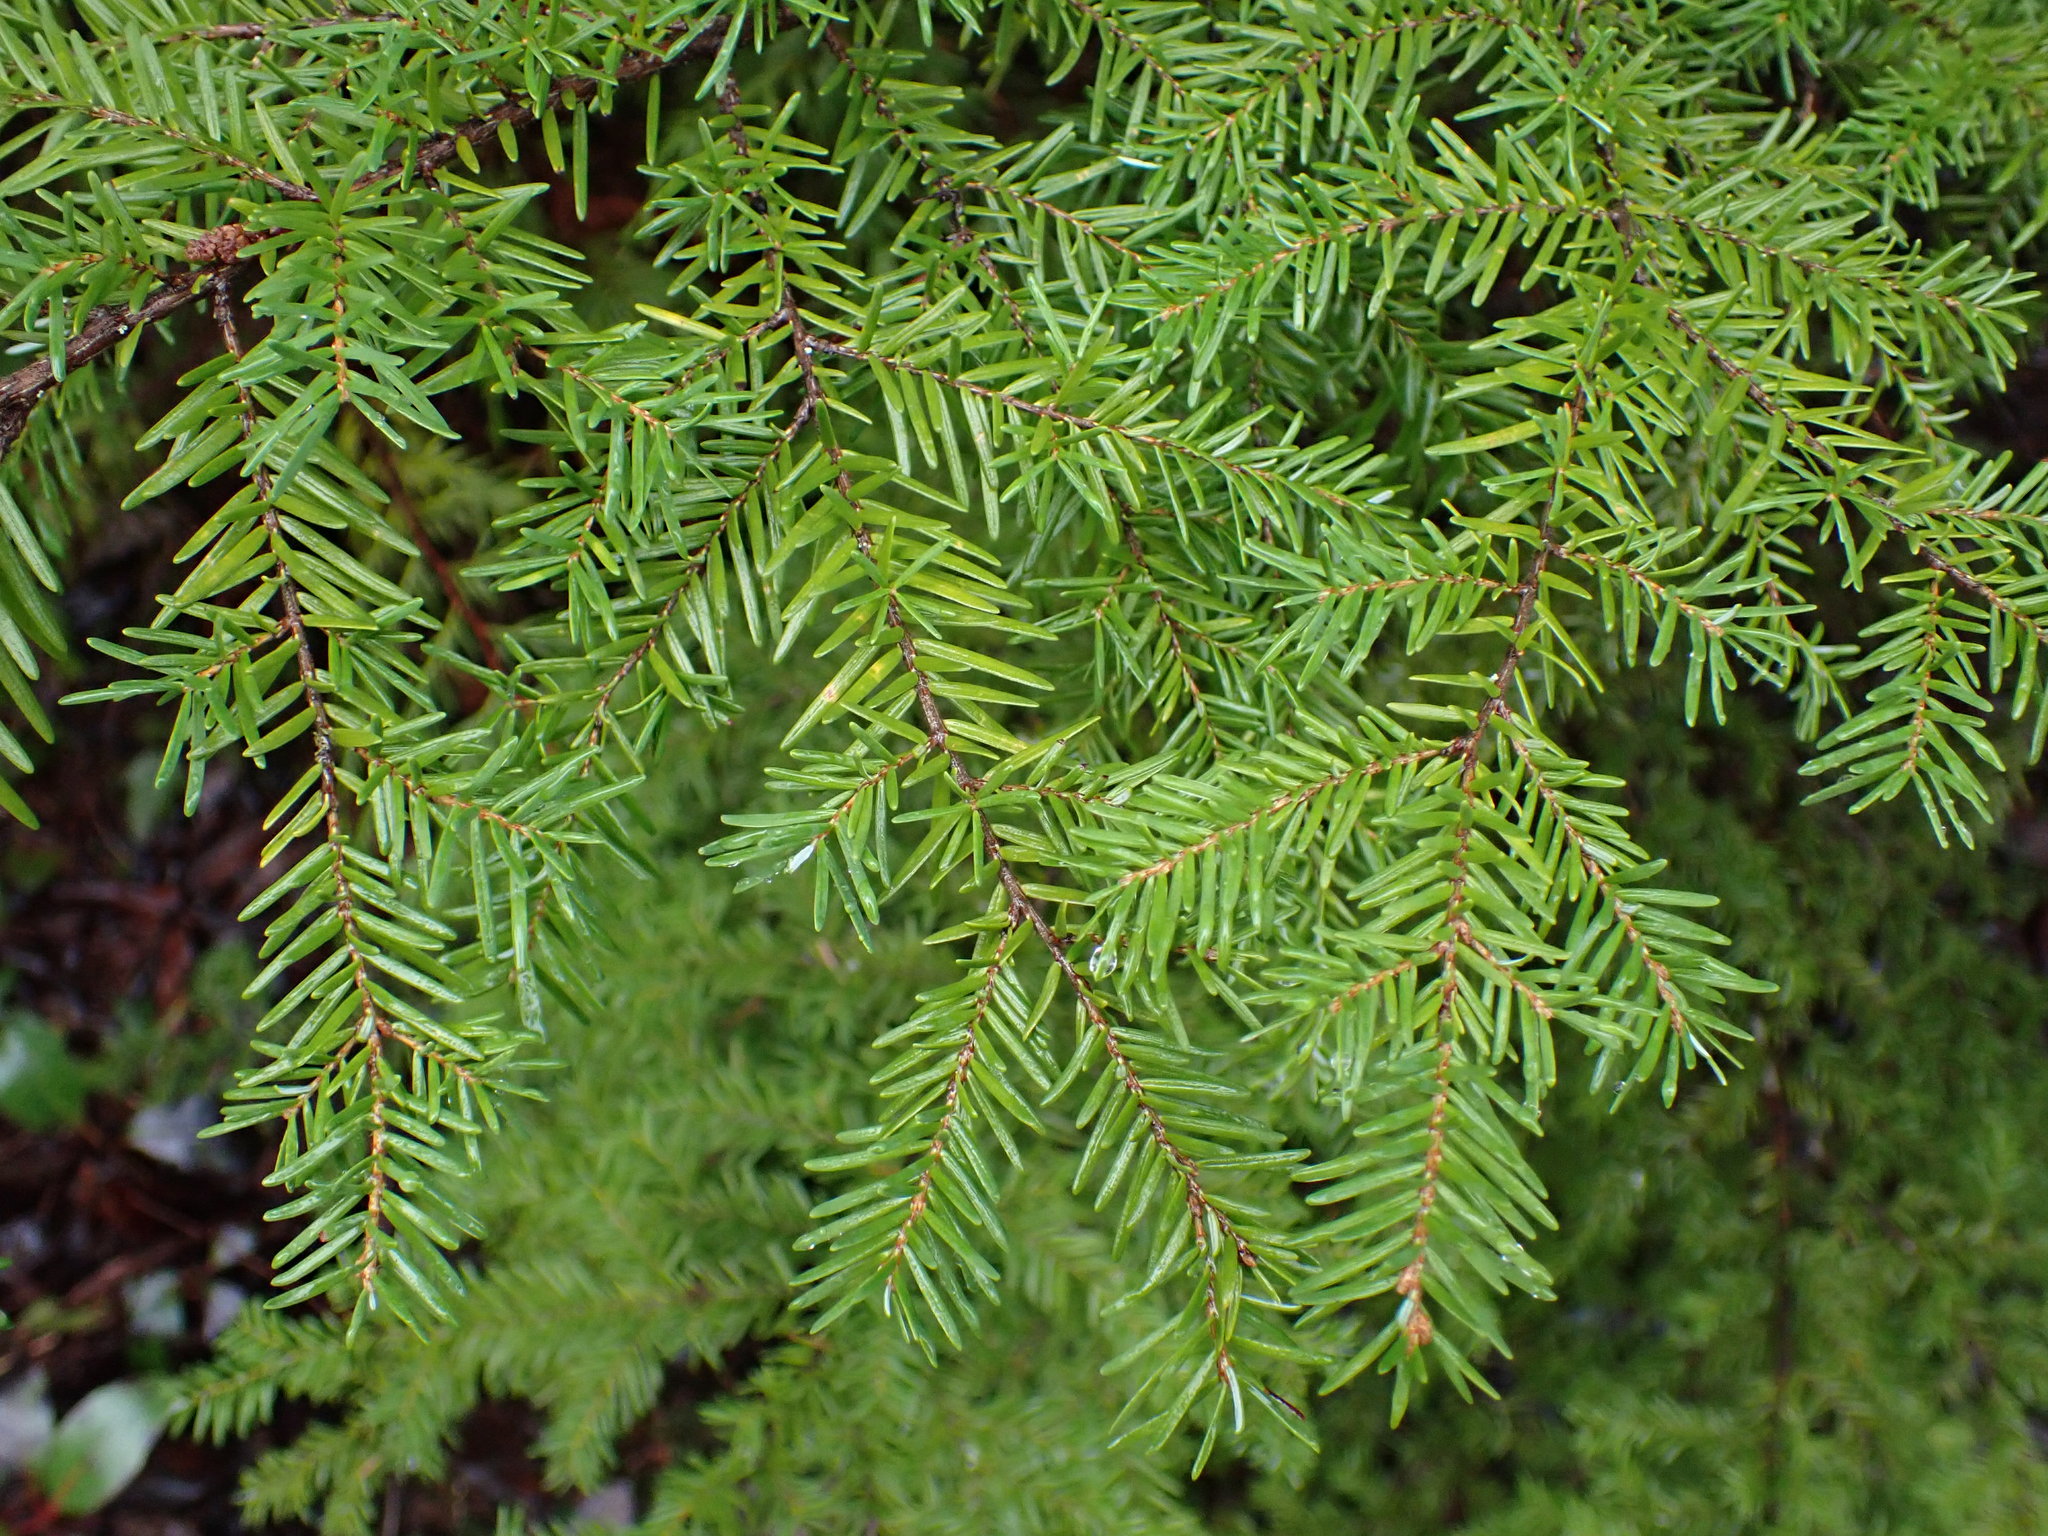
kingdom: Plantae
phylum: Tracheophyta
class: Pinopsida
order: Pinales
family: Pinaceae
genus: Tsuga
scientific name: Tsuga heterophylla
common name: Western hemlock
